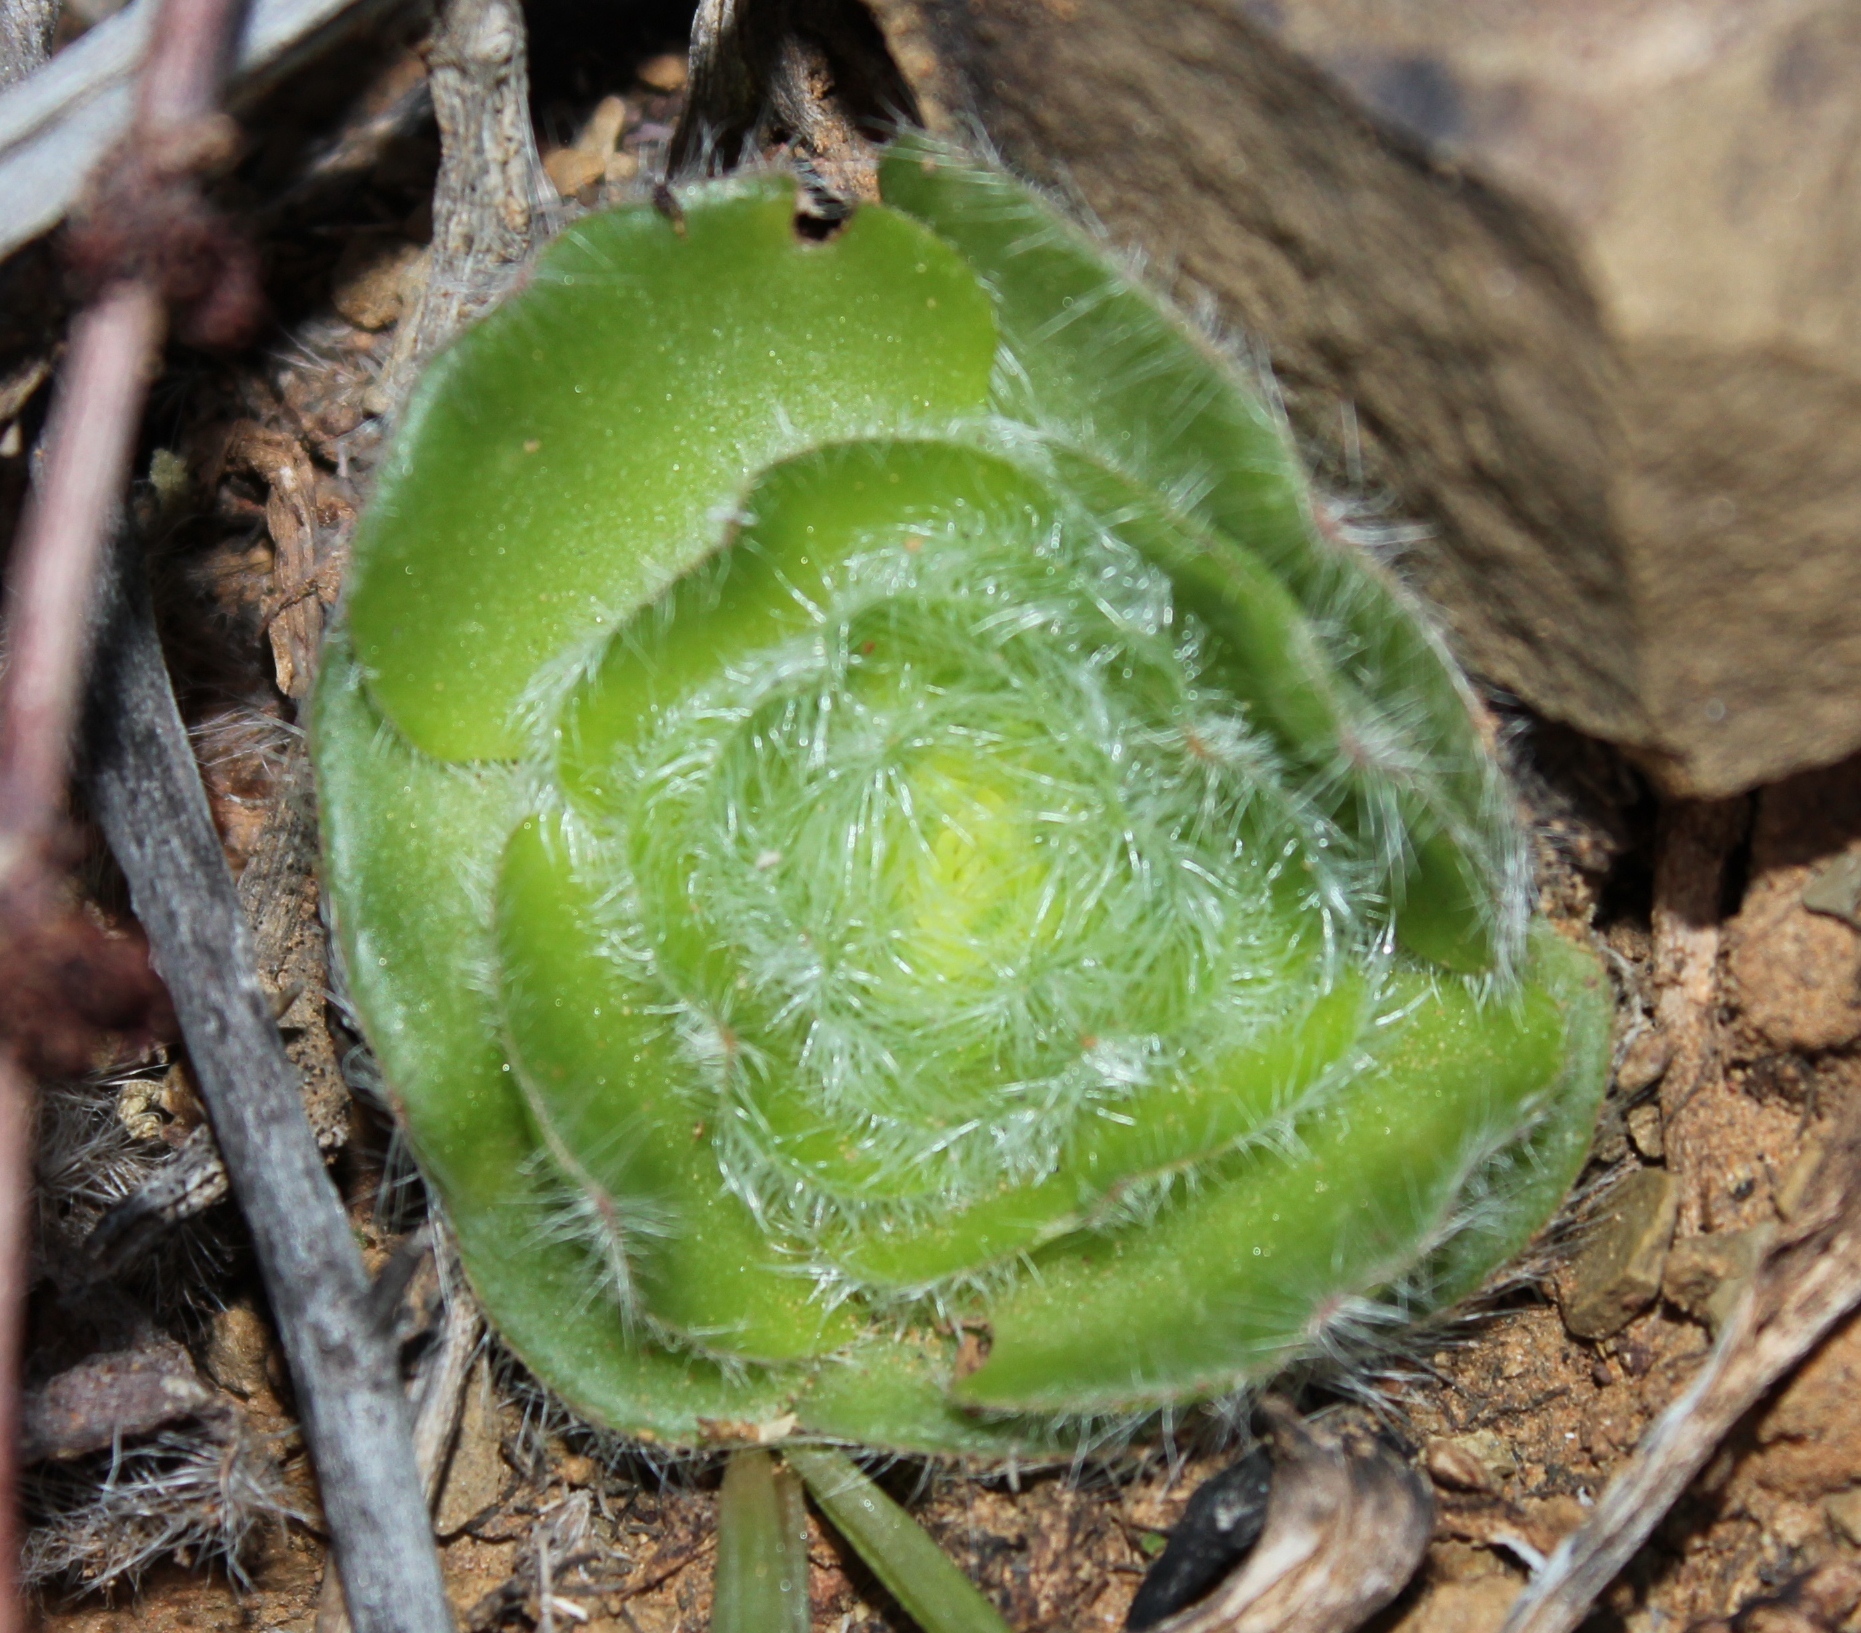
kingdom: Plantae
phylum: Tracheophyta
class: Magnoliopsida
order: Saxifragales
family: Crassulaceae
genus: Crassula
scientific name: Crassula barbata
